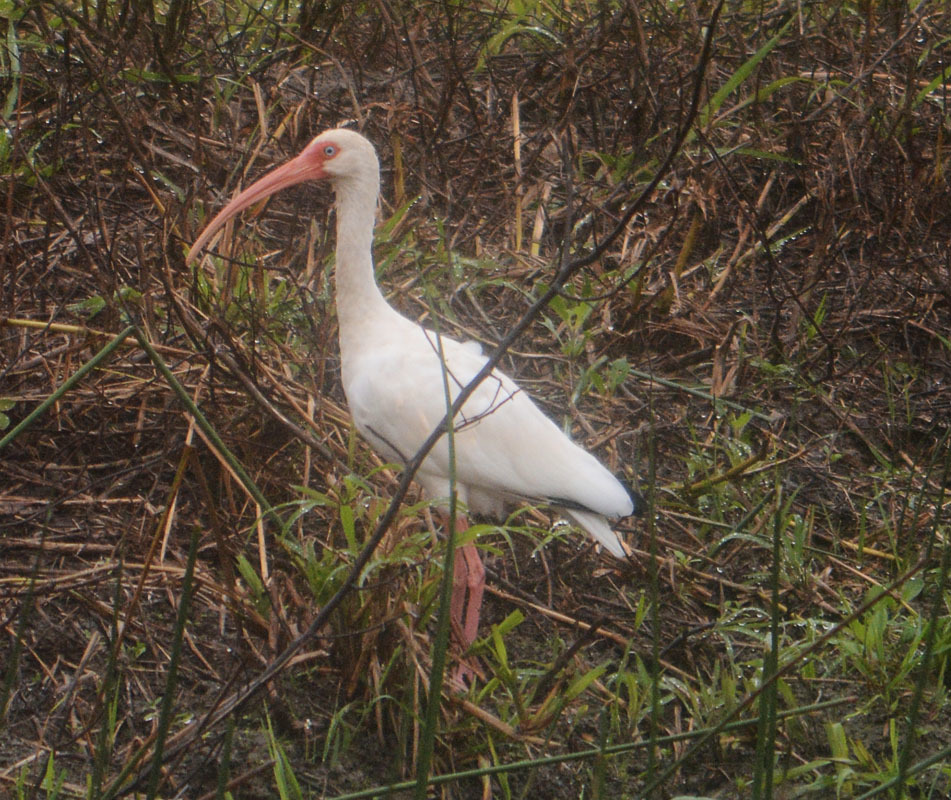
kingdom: Animalia
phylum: Chordata
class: Aves
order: Pelecaniformes
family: Threskiornithidae
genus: Eudocimus
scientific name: Eudocimus albus
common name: White ibis
